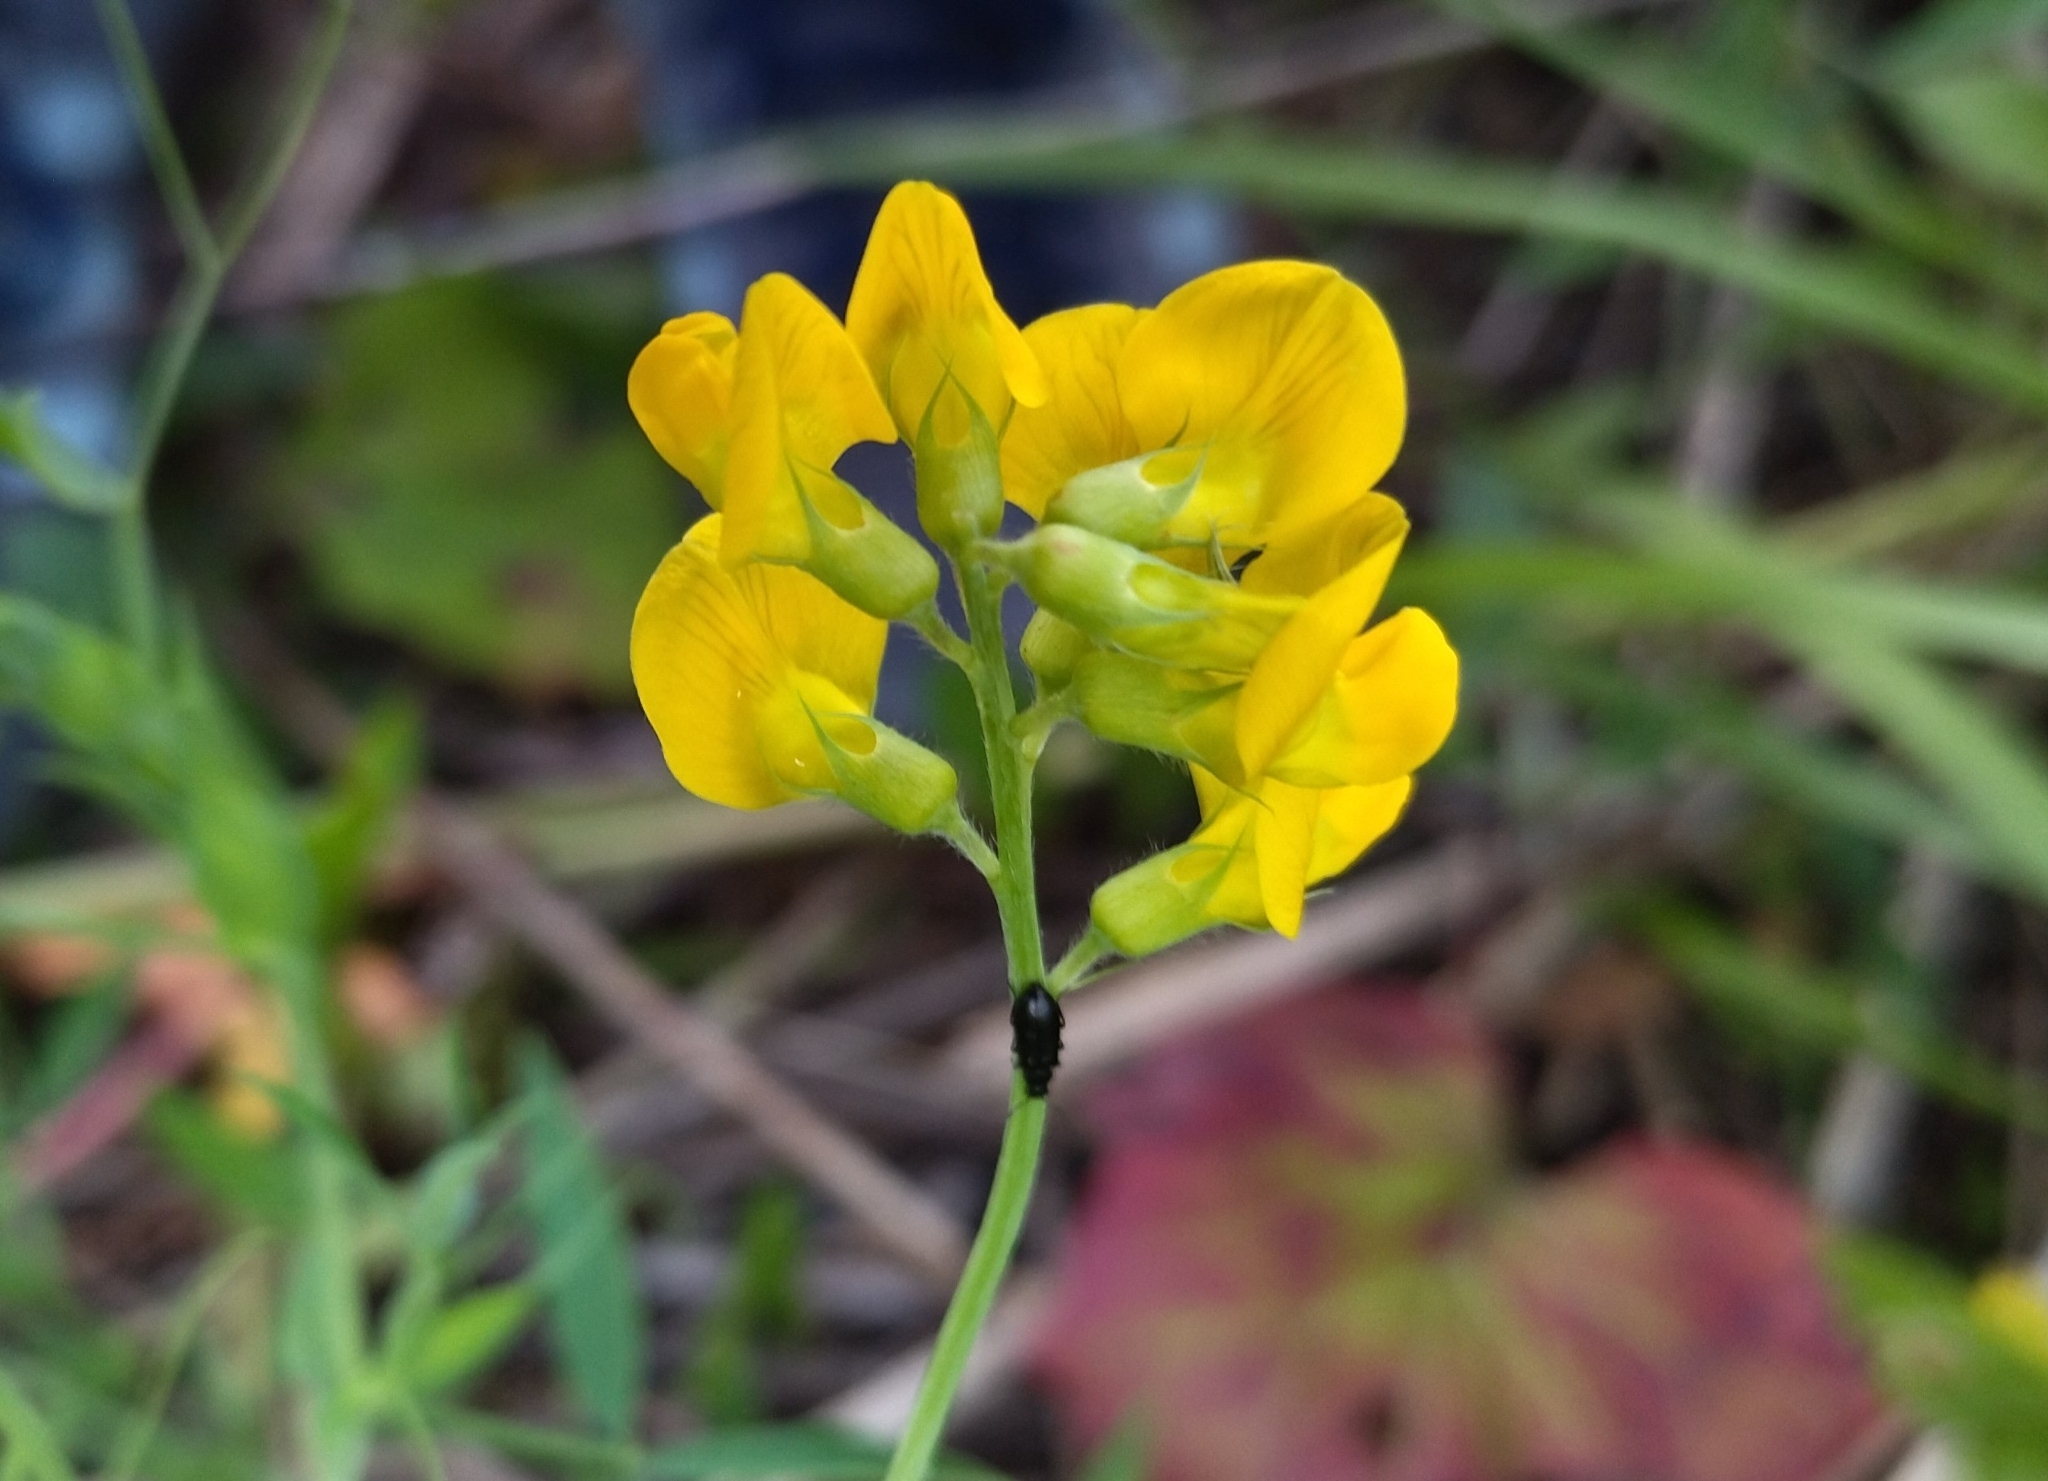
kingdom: Plantae
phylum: Tracheophyta
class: Magnoliopsida
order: Fabales
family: Fabaceae
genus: Lathyrus
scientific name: Lathyrus pratensis
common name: Meadow vetchling
